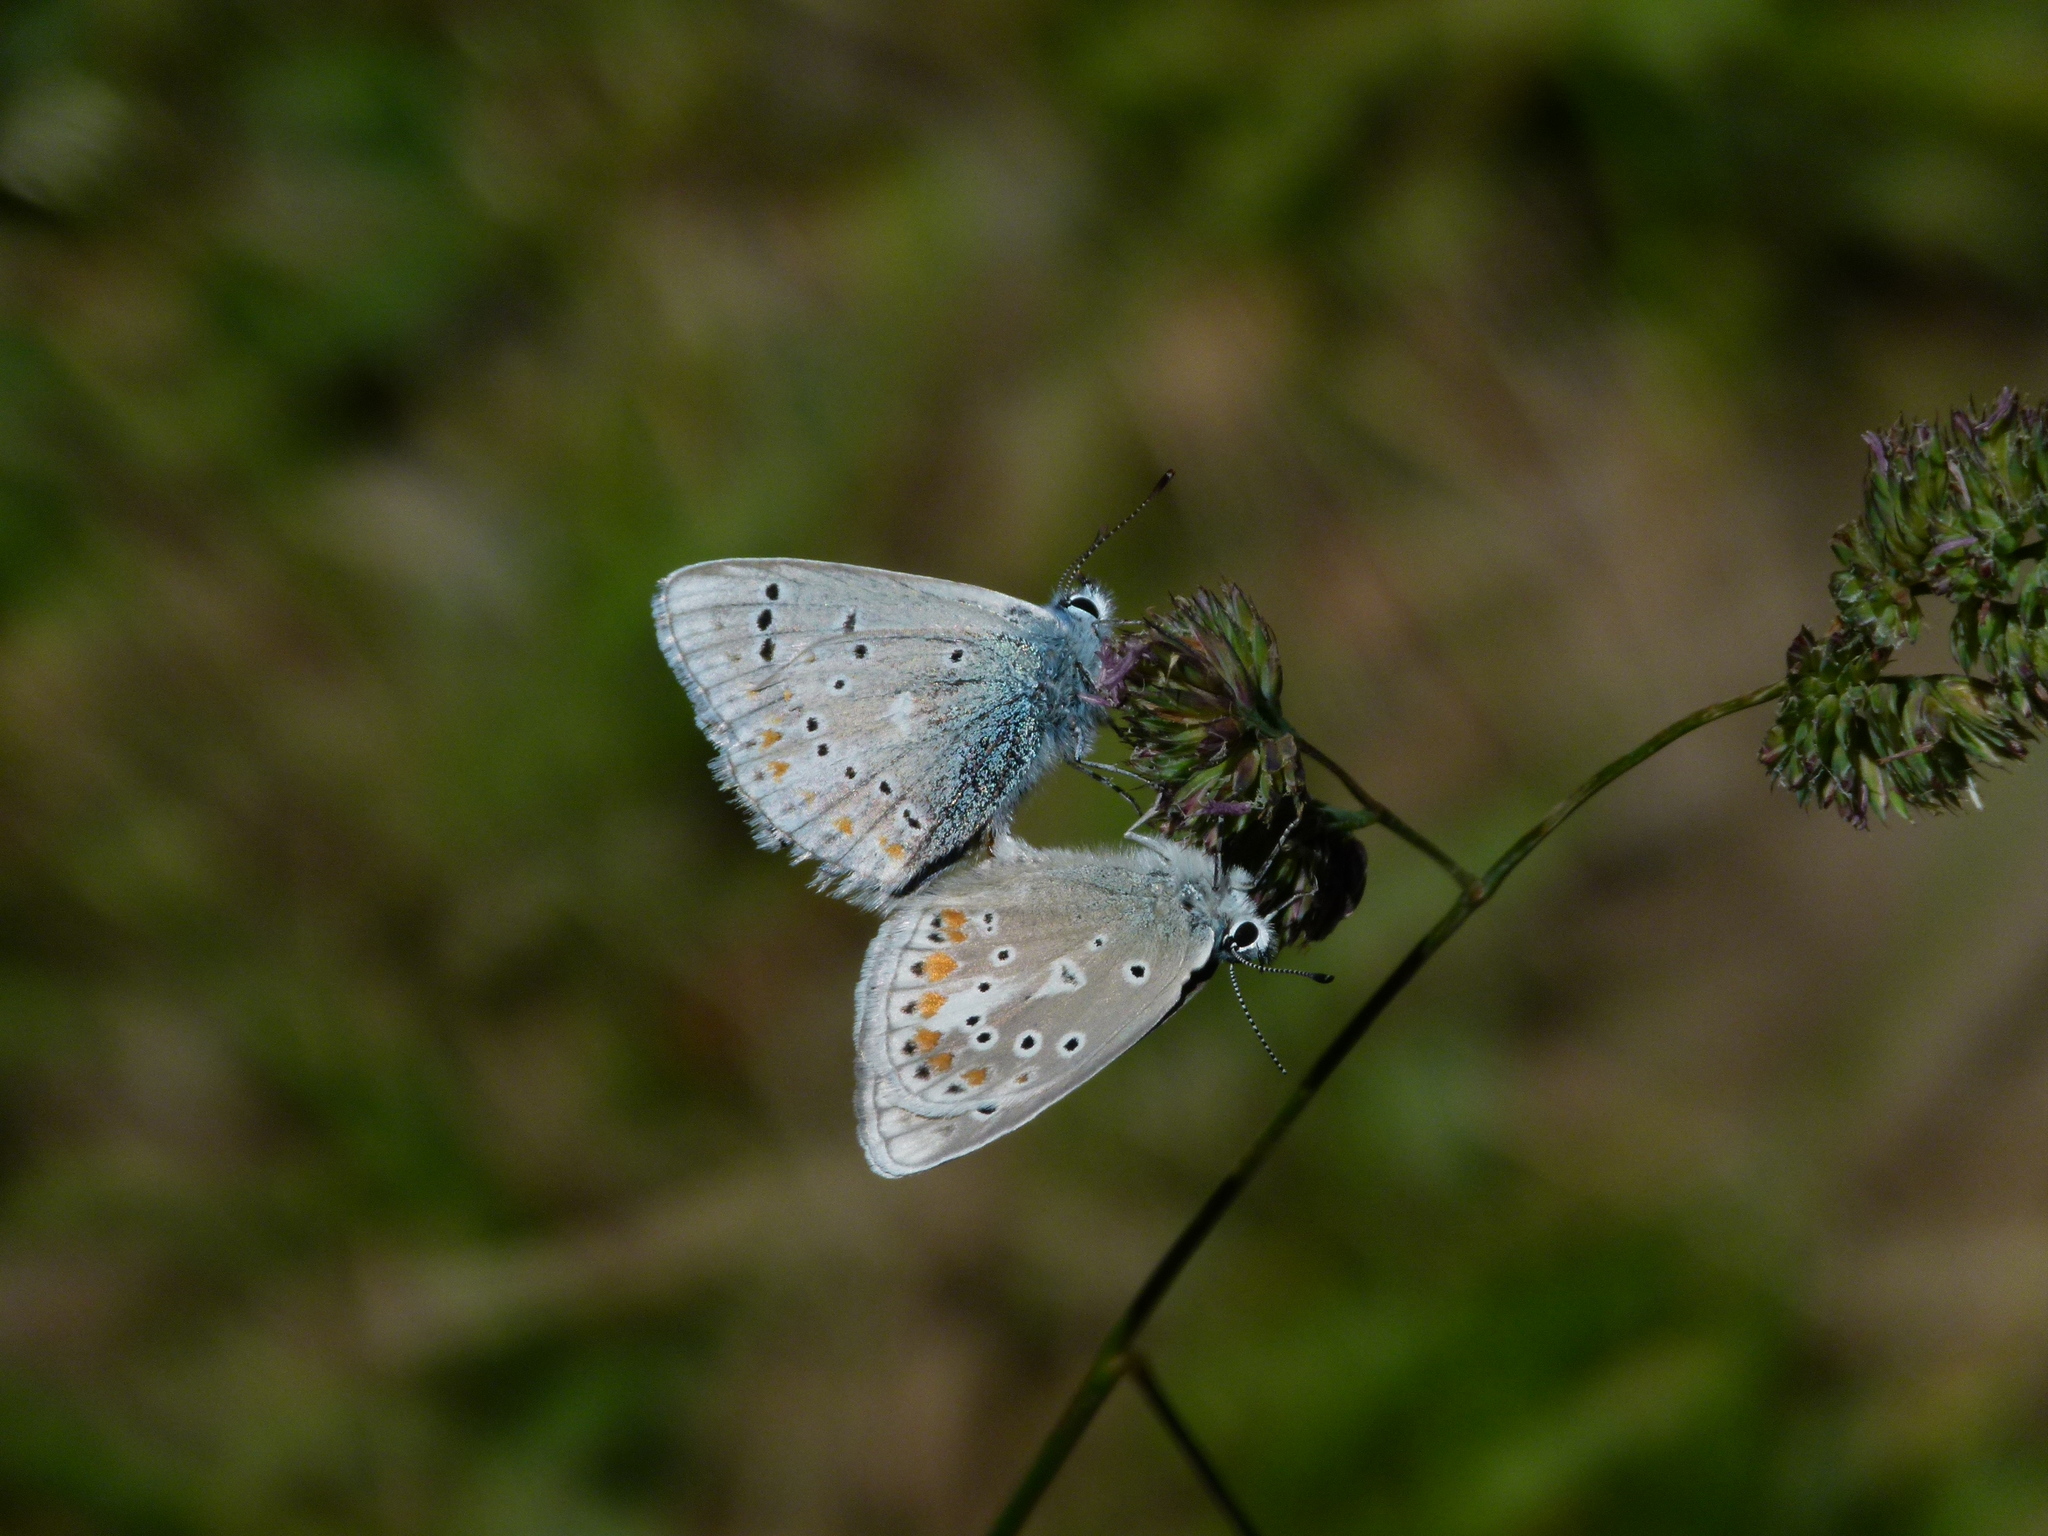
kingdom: Animalia
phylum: Arthropoda
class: Insecta
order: Lepidoptera
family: Lycaenidae
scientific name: Lycaenidae
